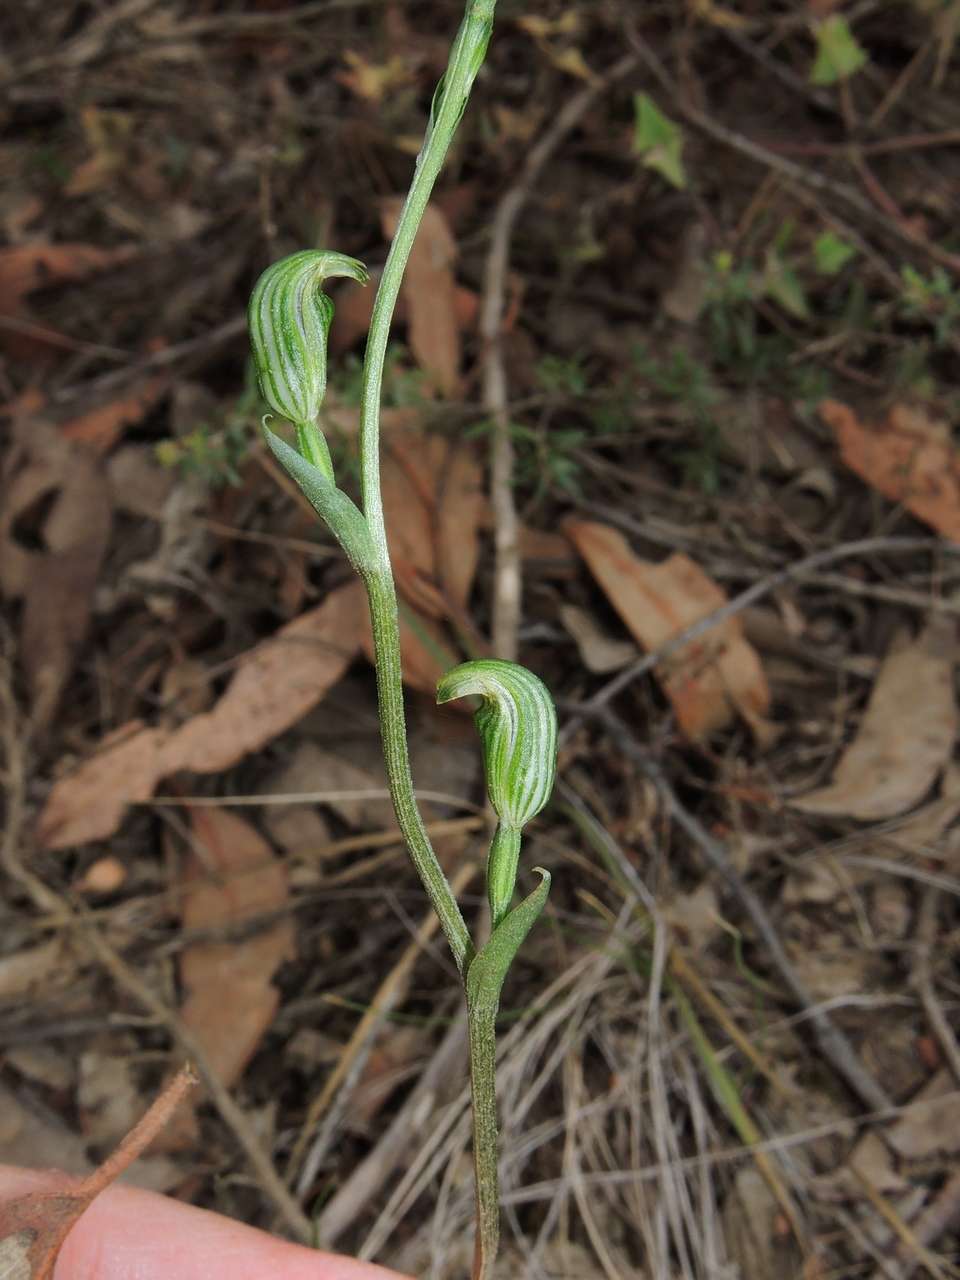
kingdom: Plantae
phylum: Tracheophyta
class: Liliopsida
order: Asparagales
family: Orchidaceae
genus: Pterostylis
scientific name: Pterostylis parviflora
